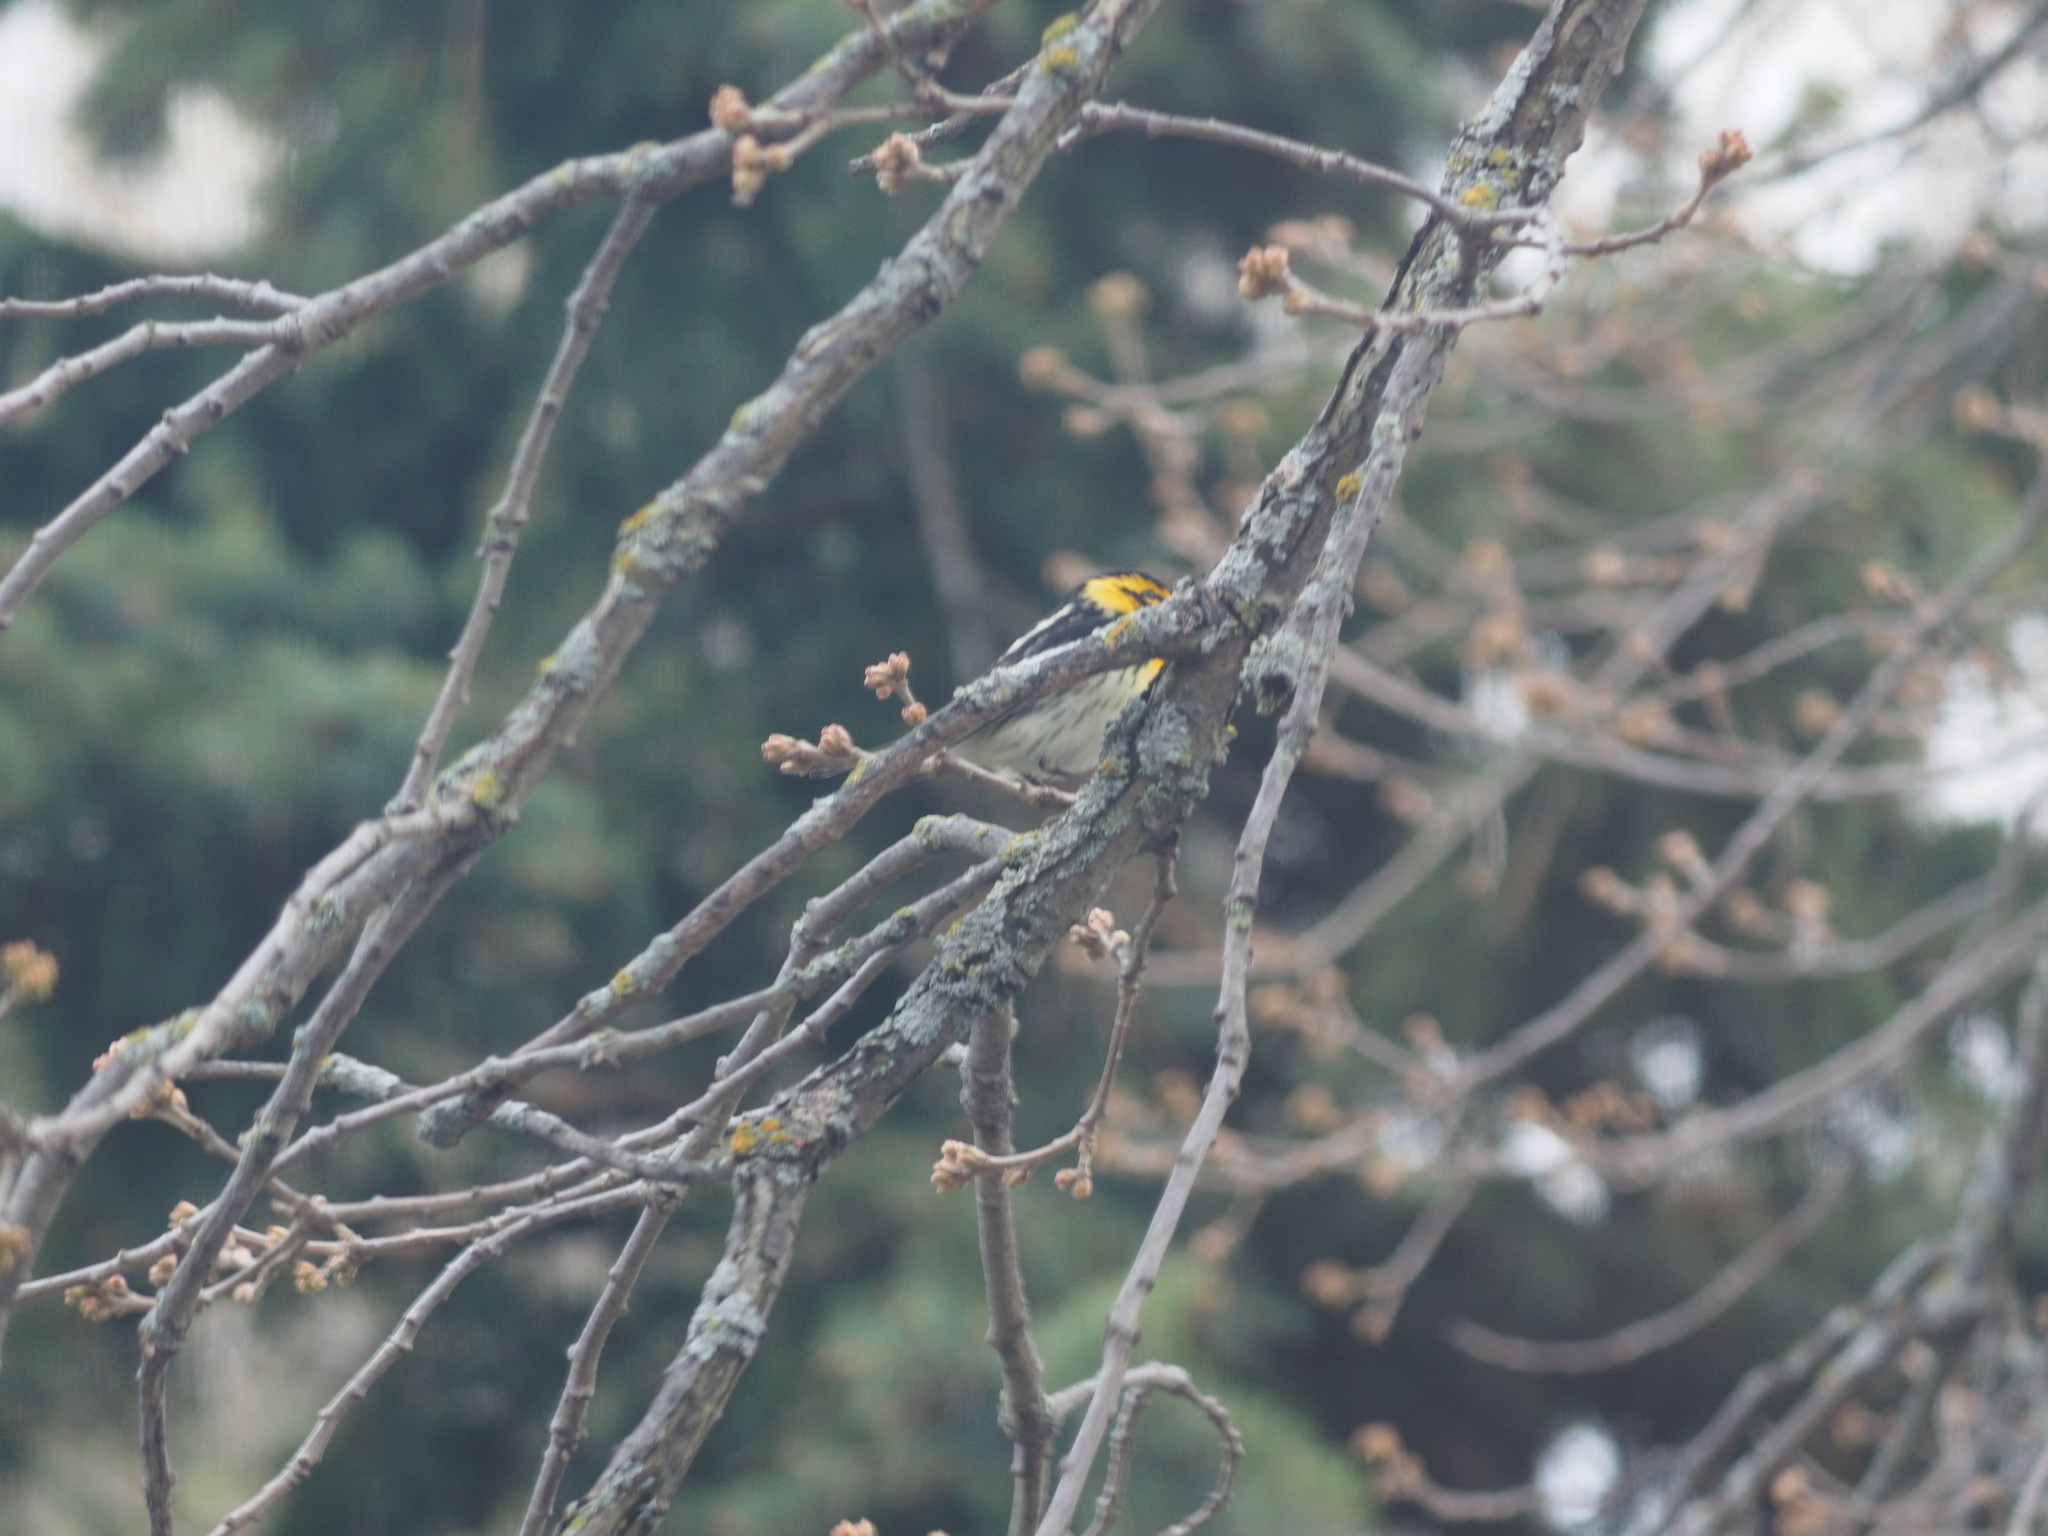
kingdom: Animalia
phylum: Chordata
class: Aves
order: Passeriformes
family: Parulidae
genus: Setophaga
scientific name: Setophaga fusca
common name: Blackburnian warbler
